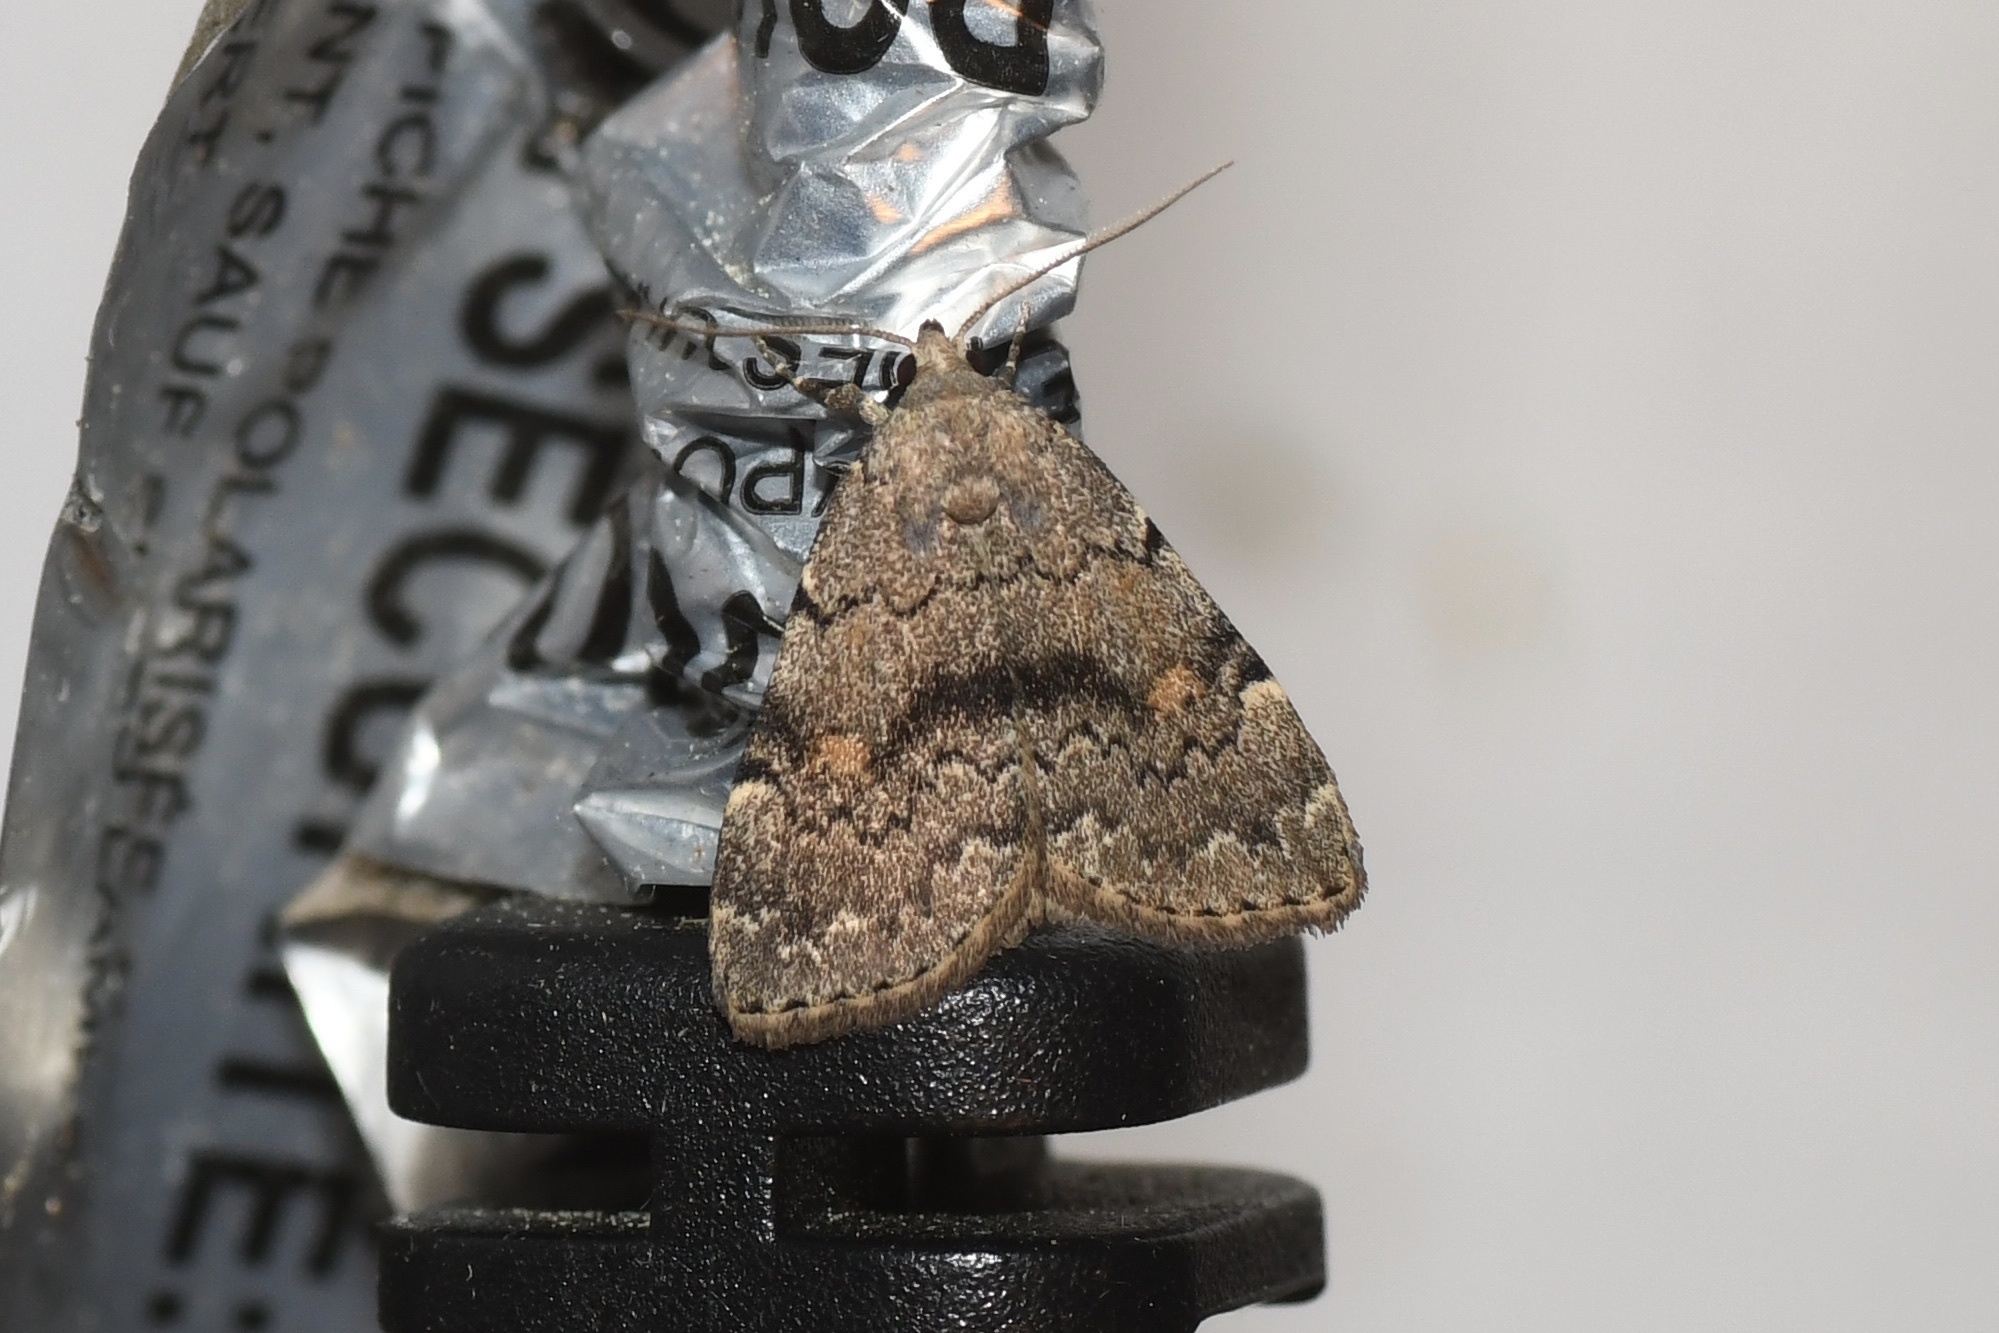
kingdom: Animalia
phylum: Arthropoda
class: Insecta
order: Lepidoptera
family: Erebidae
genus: Idia
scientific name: Idia aemula
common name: Common idia moth
